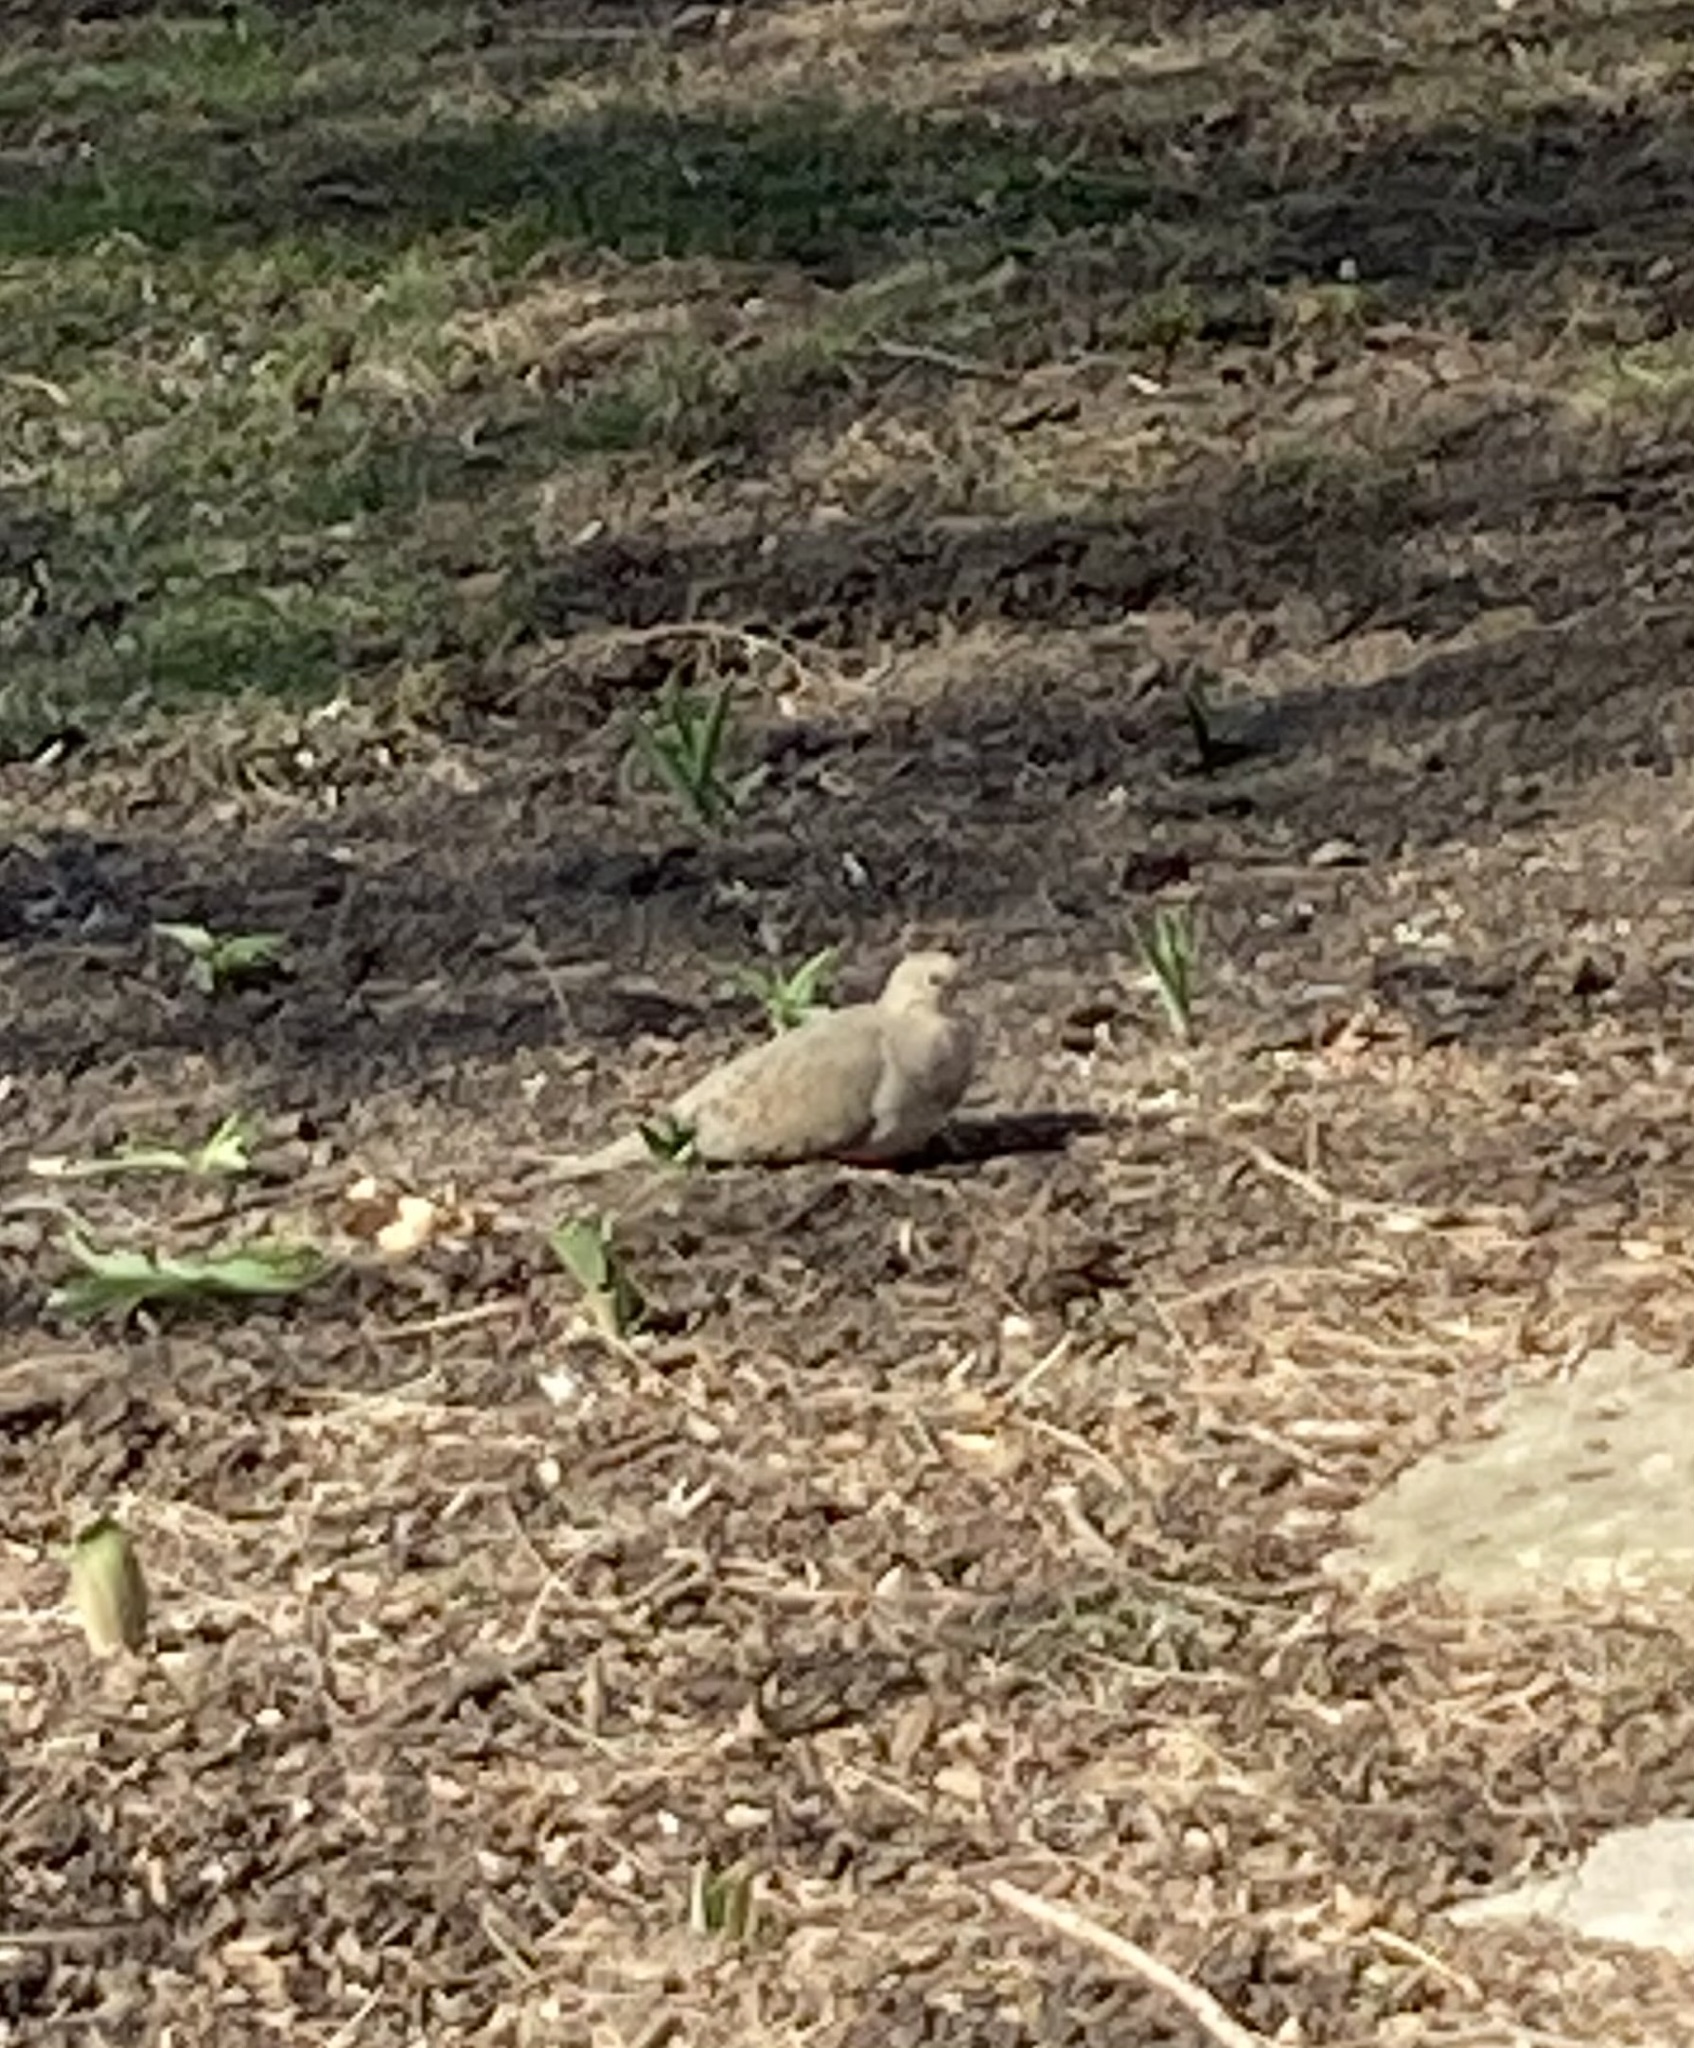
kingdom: Animalia
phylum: Chordata
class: Aves
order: Columbiformes
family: Columbidae
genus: Zenaida
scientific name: Zenaida macroura
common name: Mourning dove
